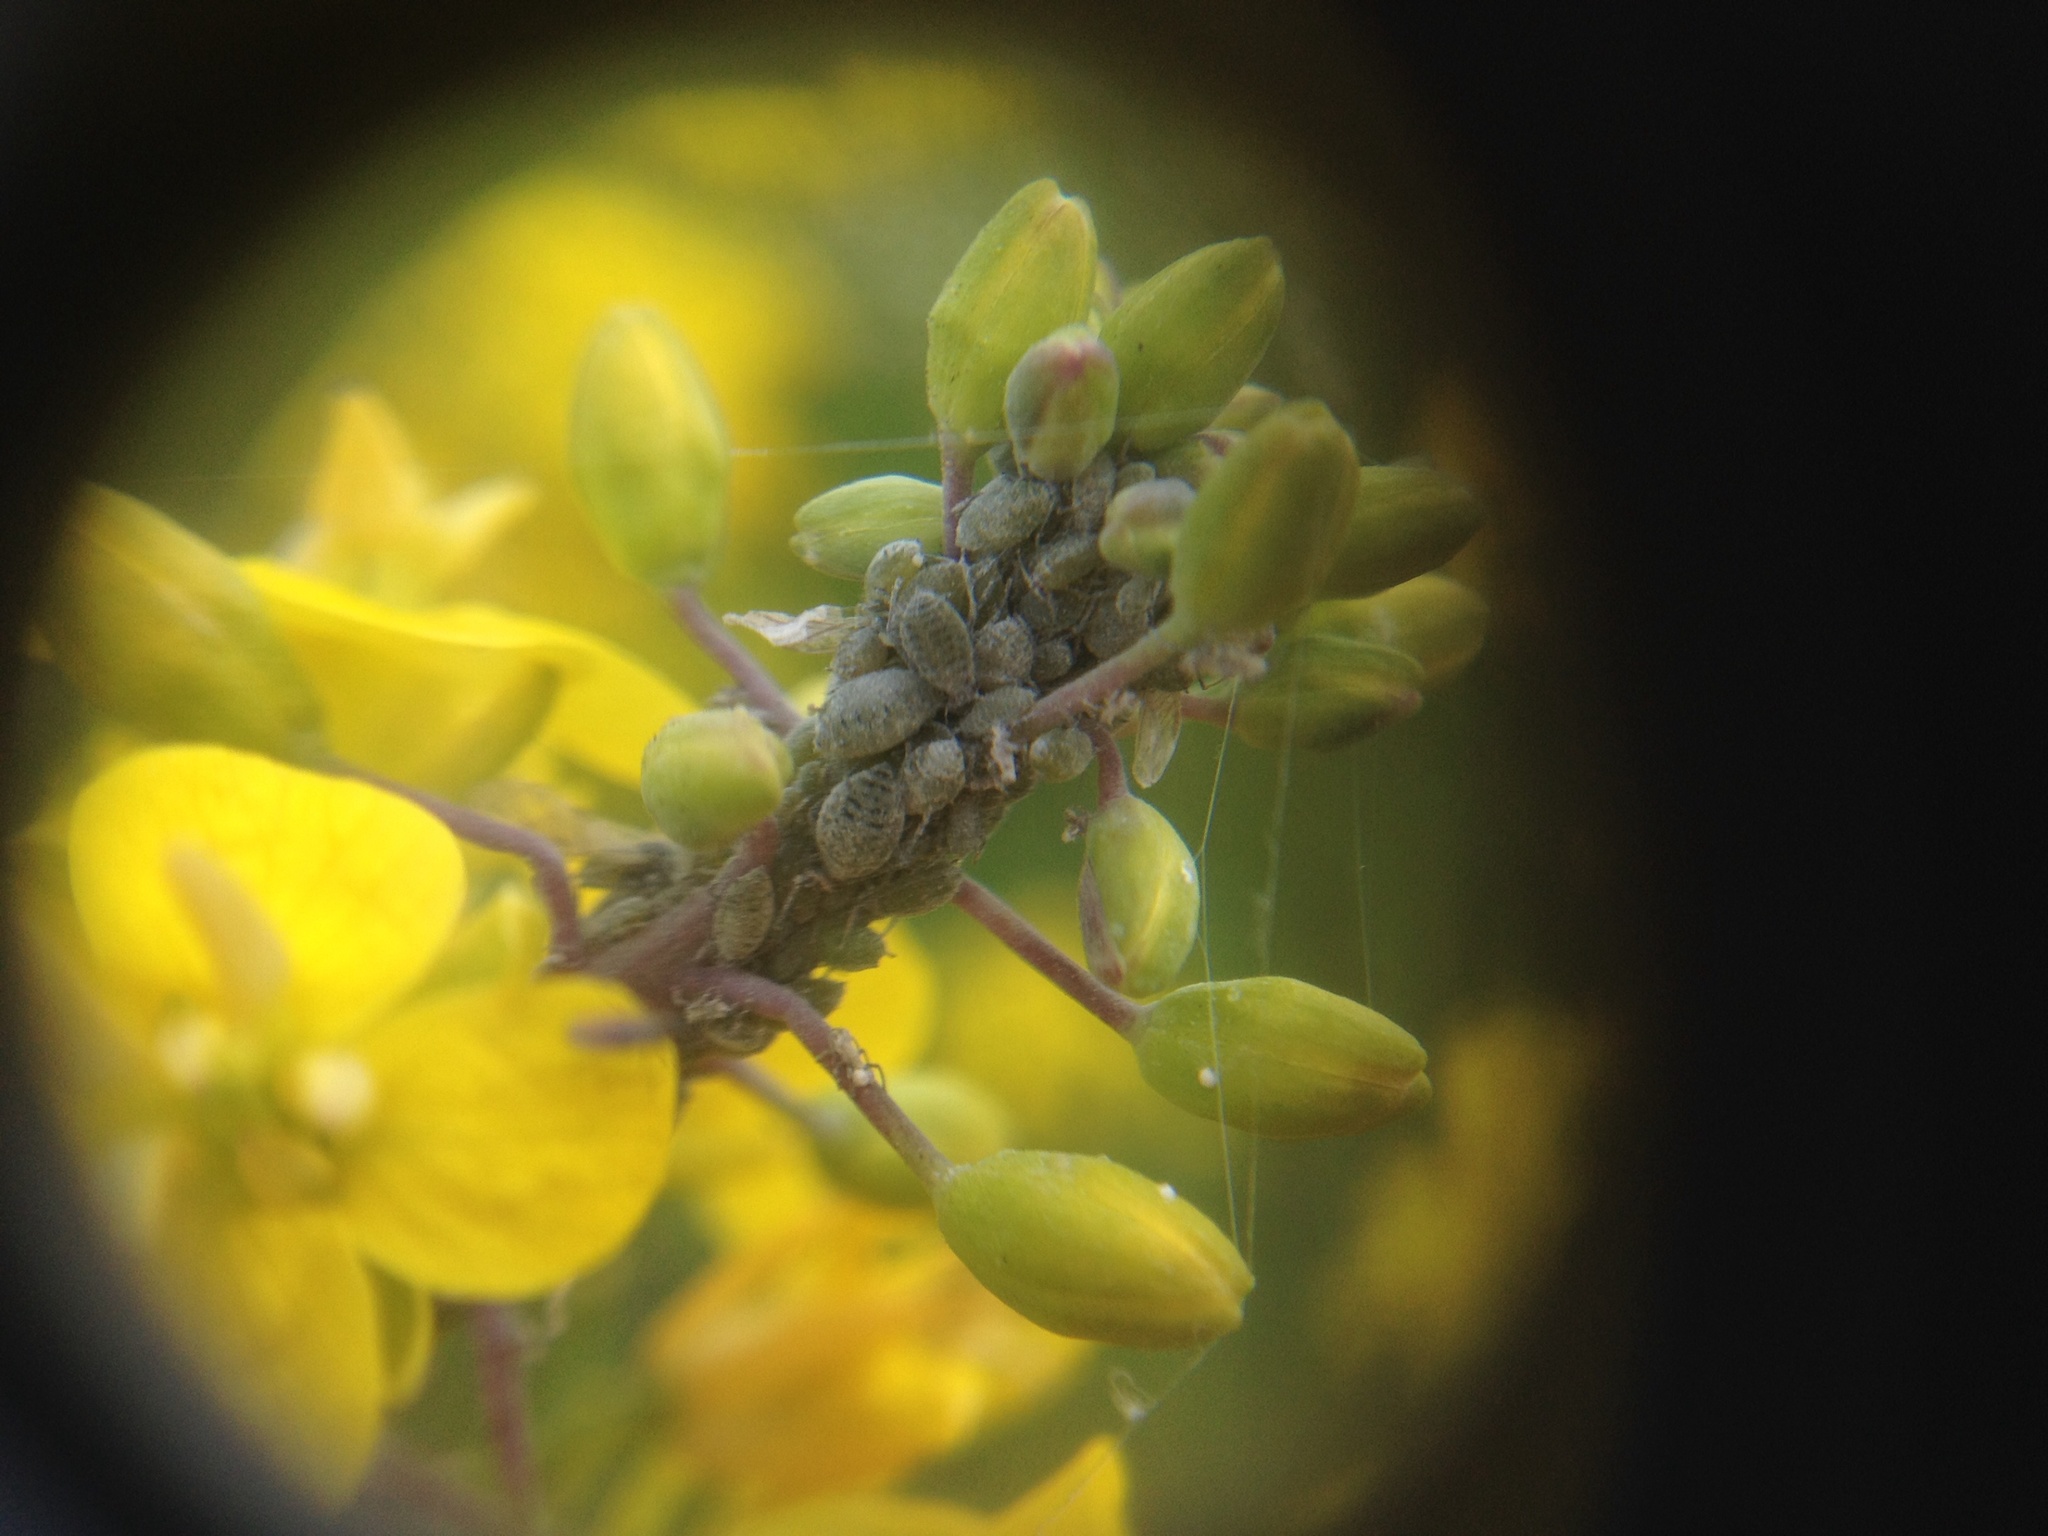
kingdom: Animalia
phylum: Arthropoda
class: Insecta
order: Hemiptera
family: Aphididae
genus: Brevicoryne
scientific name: Brevicoryne brassicae
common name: Cabbage aphid
